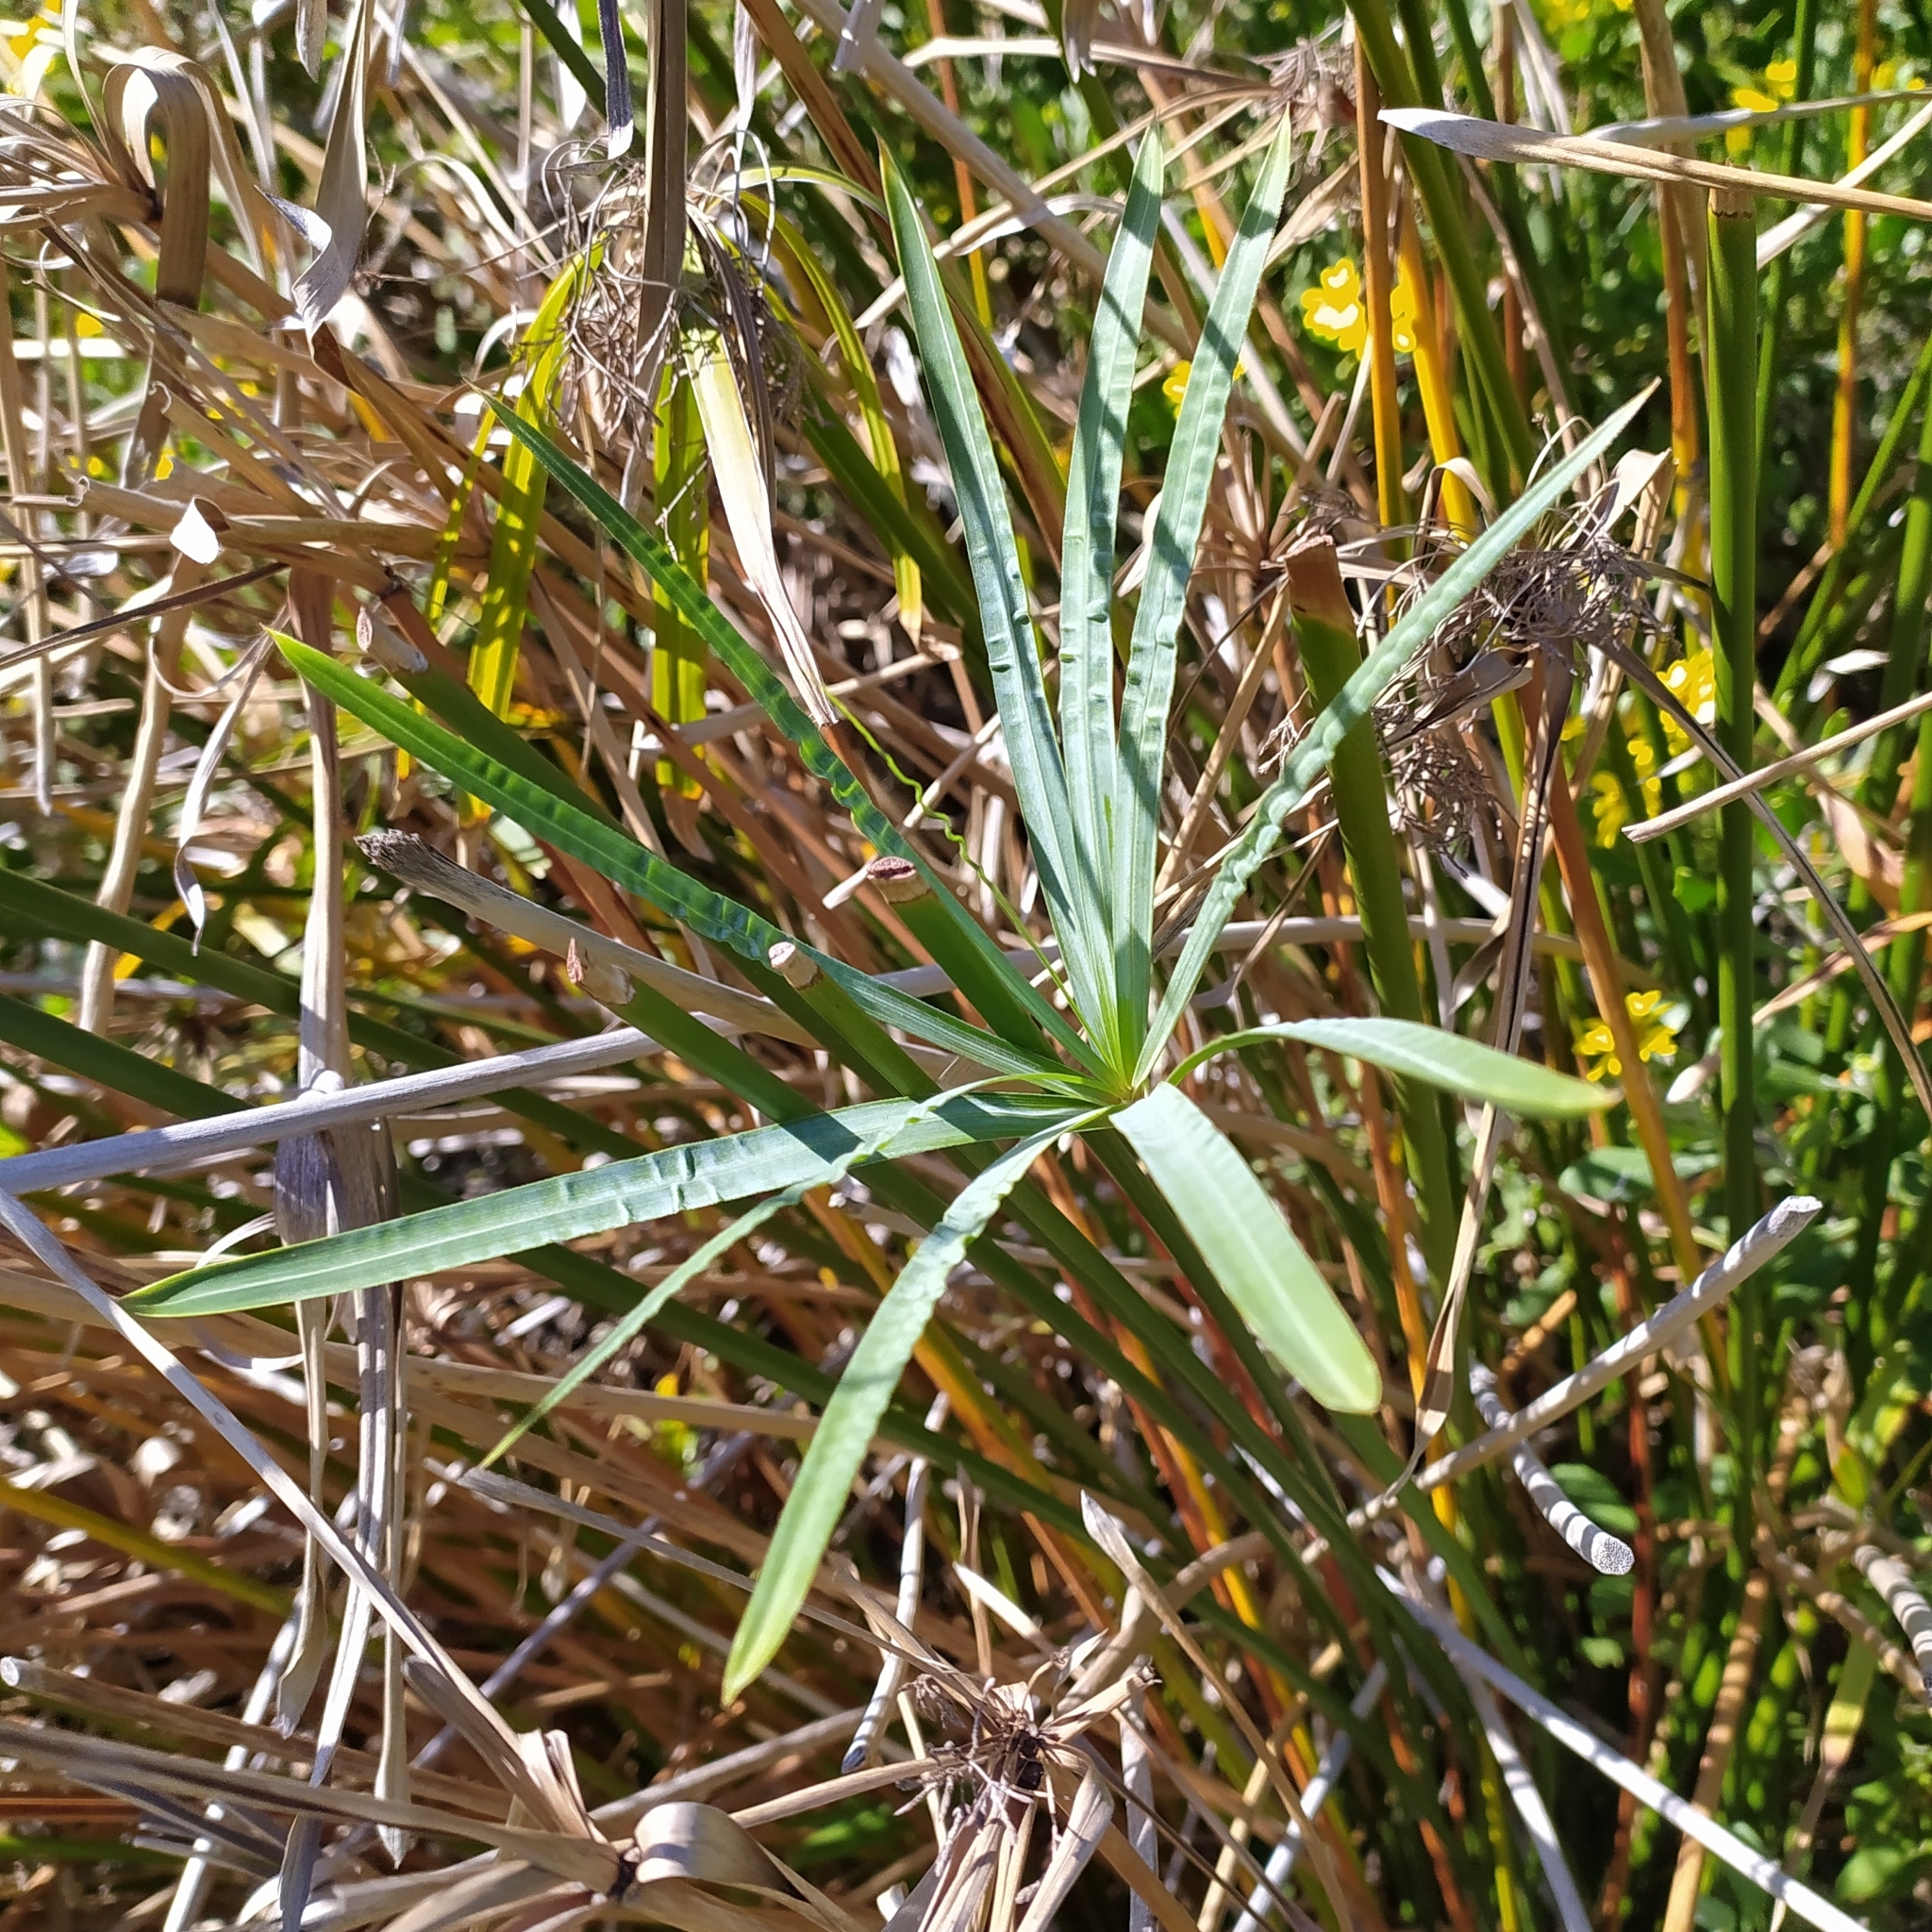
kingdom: Plantae
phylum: Tracheophyta
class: Liliopsida
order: Poales
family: Cyperaceae
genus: Cyperus
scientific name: Cyperus textilis
